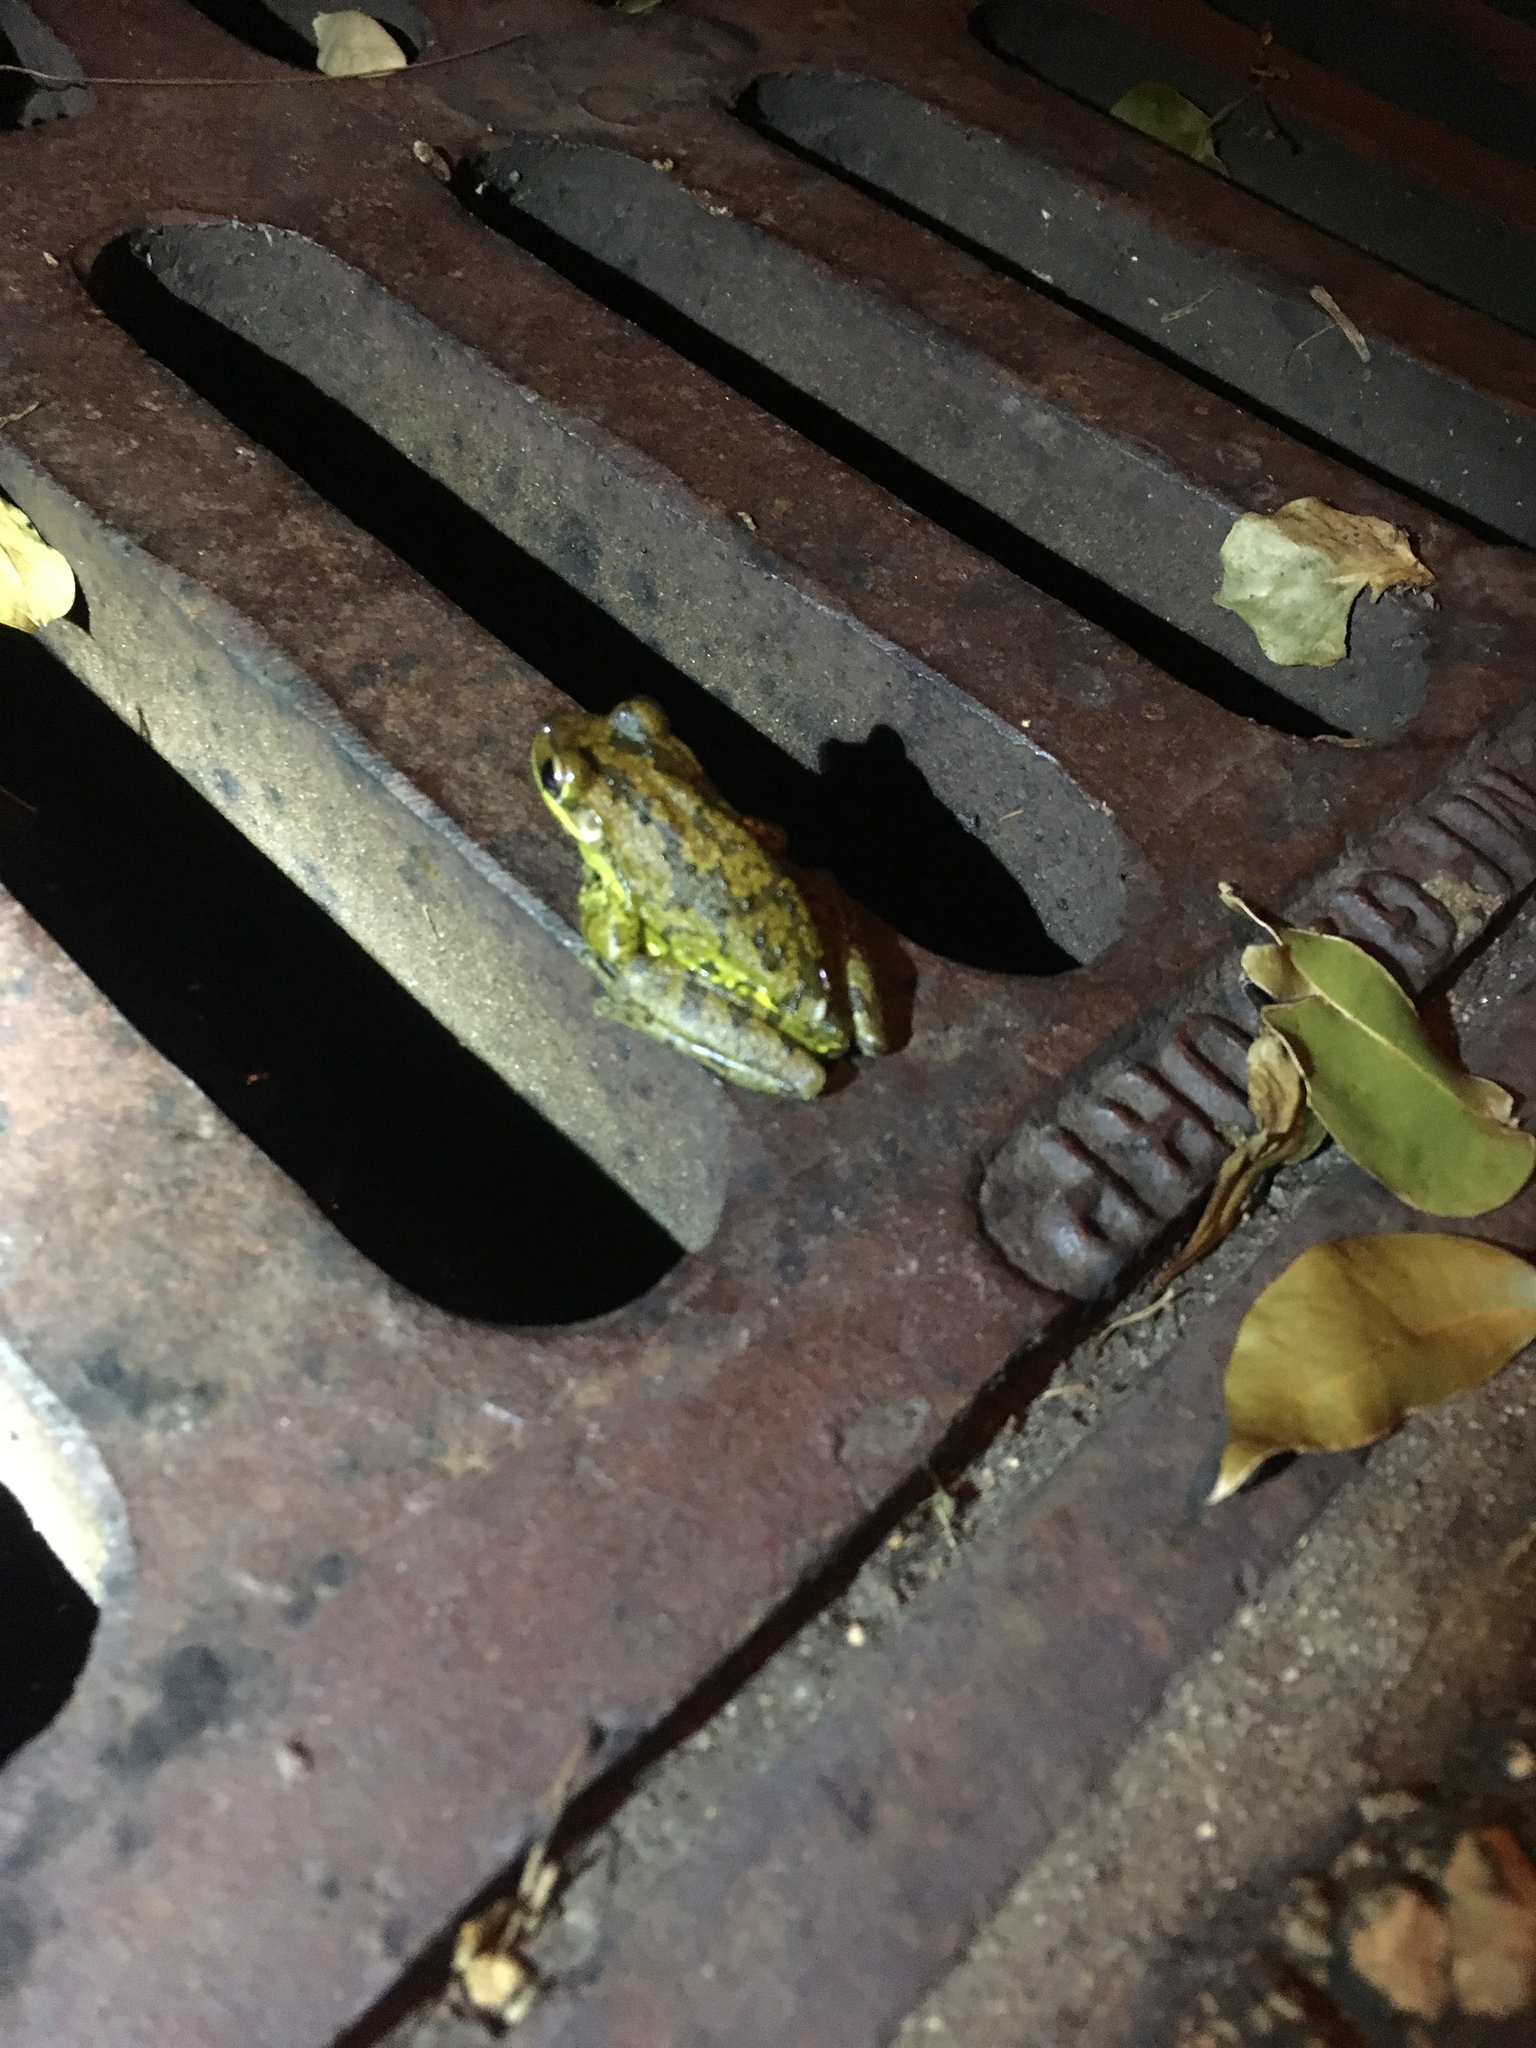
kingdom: Animalia
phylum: Chordata
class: Amphibia
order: Anura
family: Hylidae
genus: Osteopilus
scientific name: Osteopilus septentrionalis
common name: Cuban treefrog
